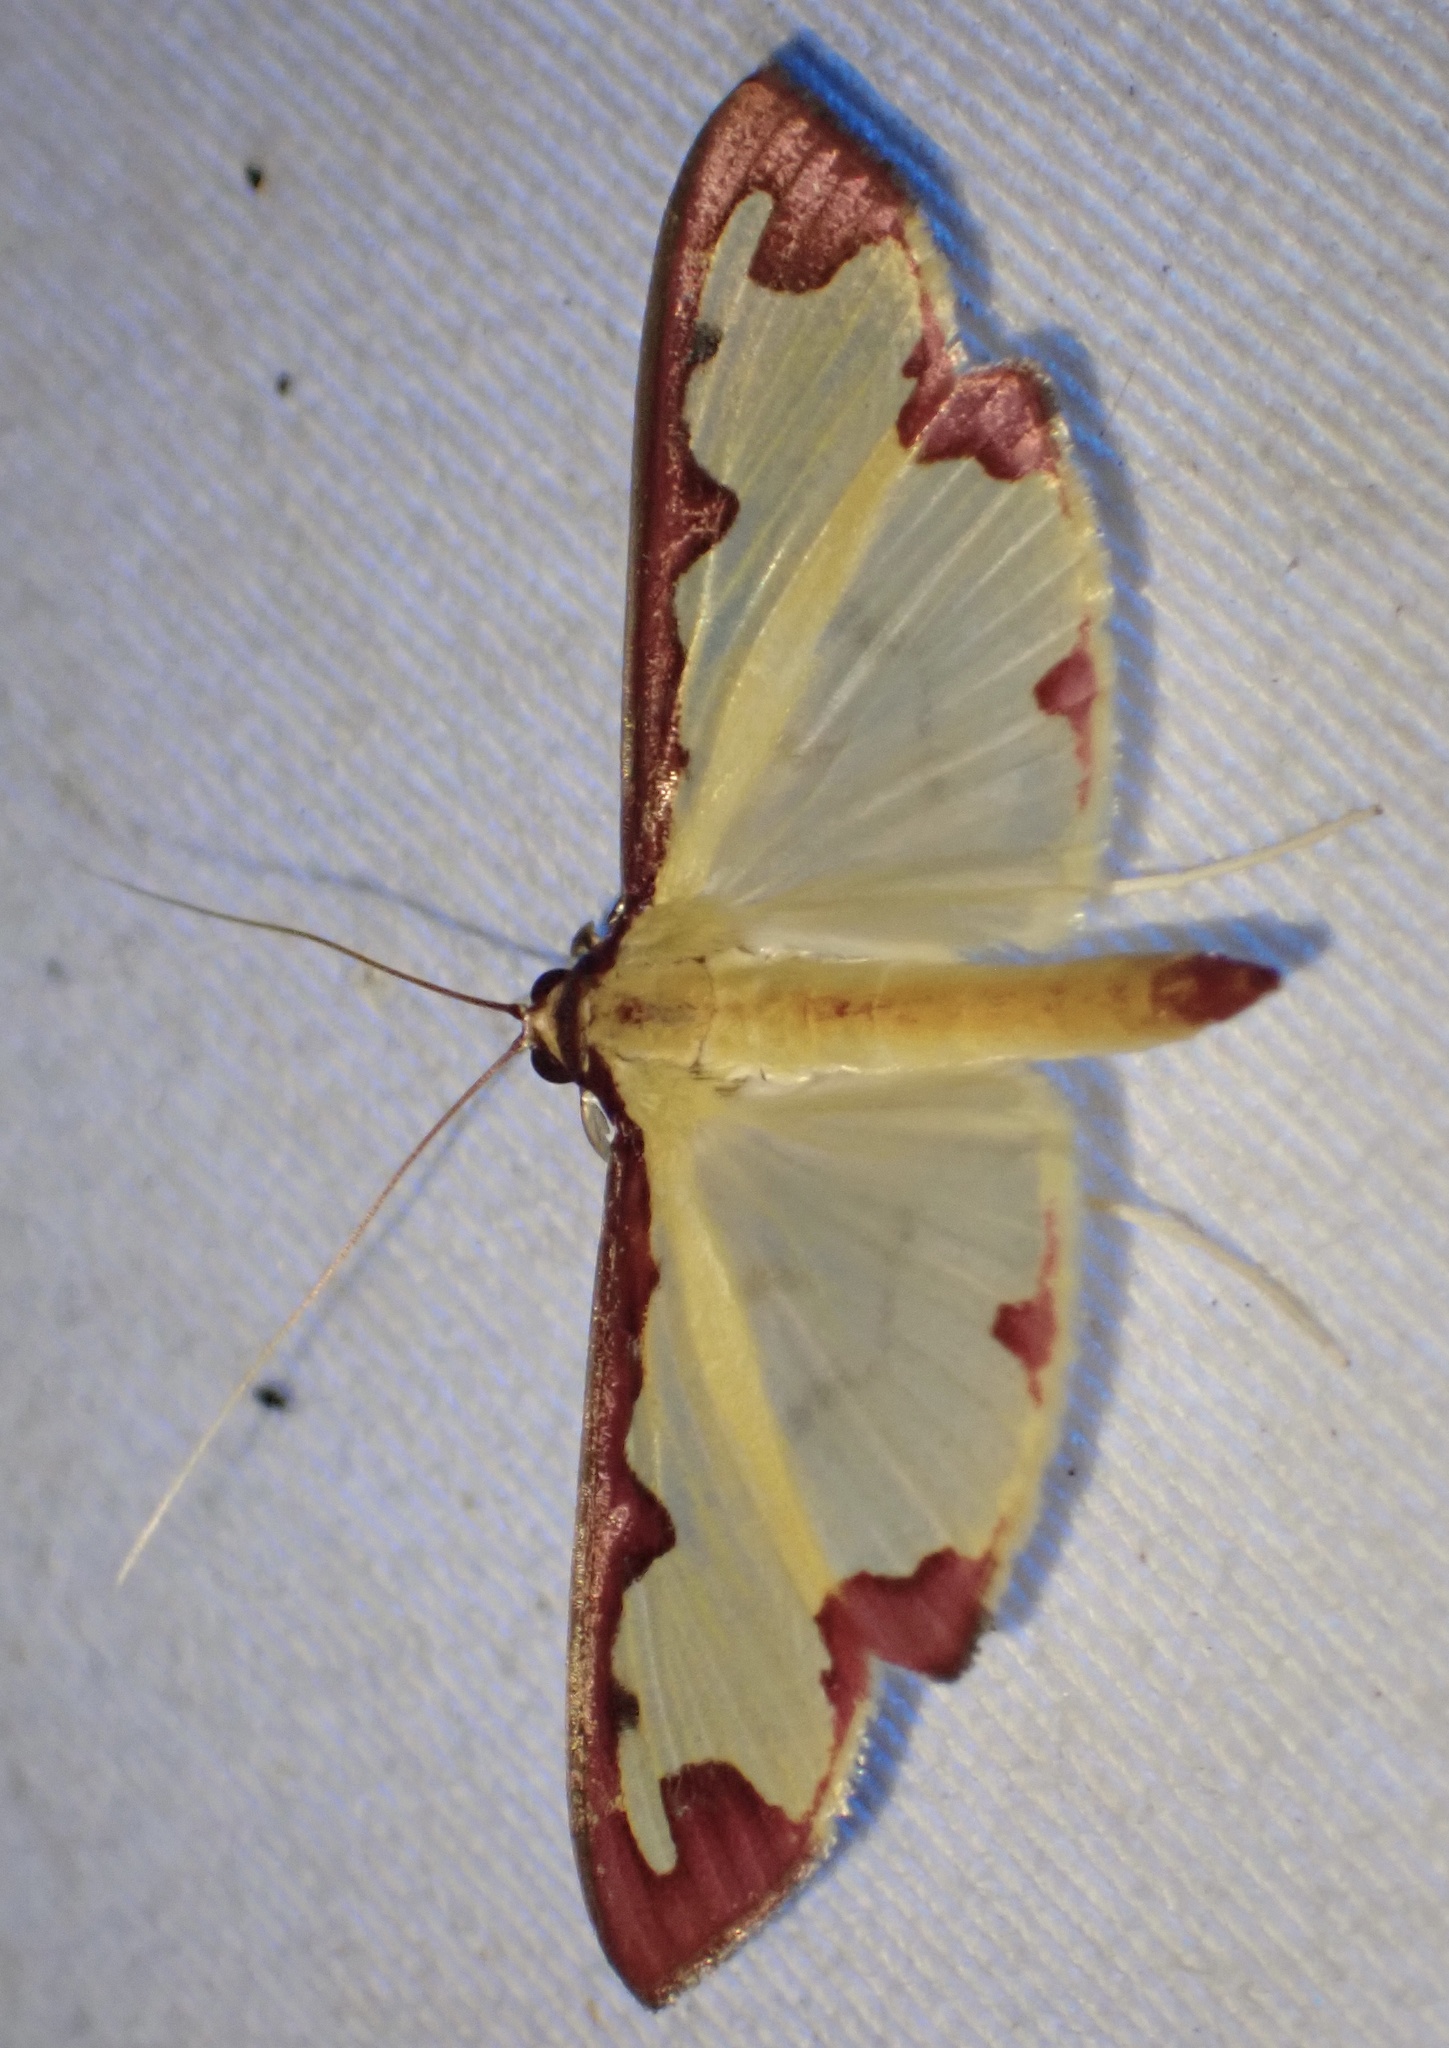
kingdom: Animalia
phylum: Arthropoda
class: Insecta
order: Lepidoptera
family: Crambidae
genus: Cadarena
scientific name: Cadarena pudoraria
